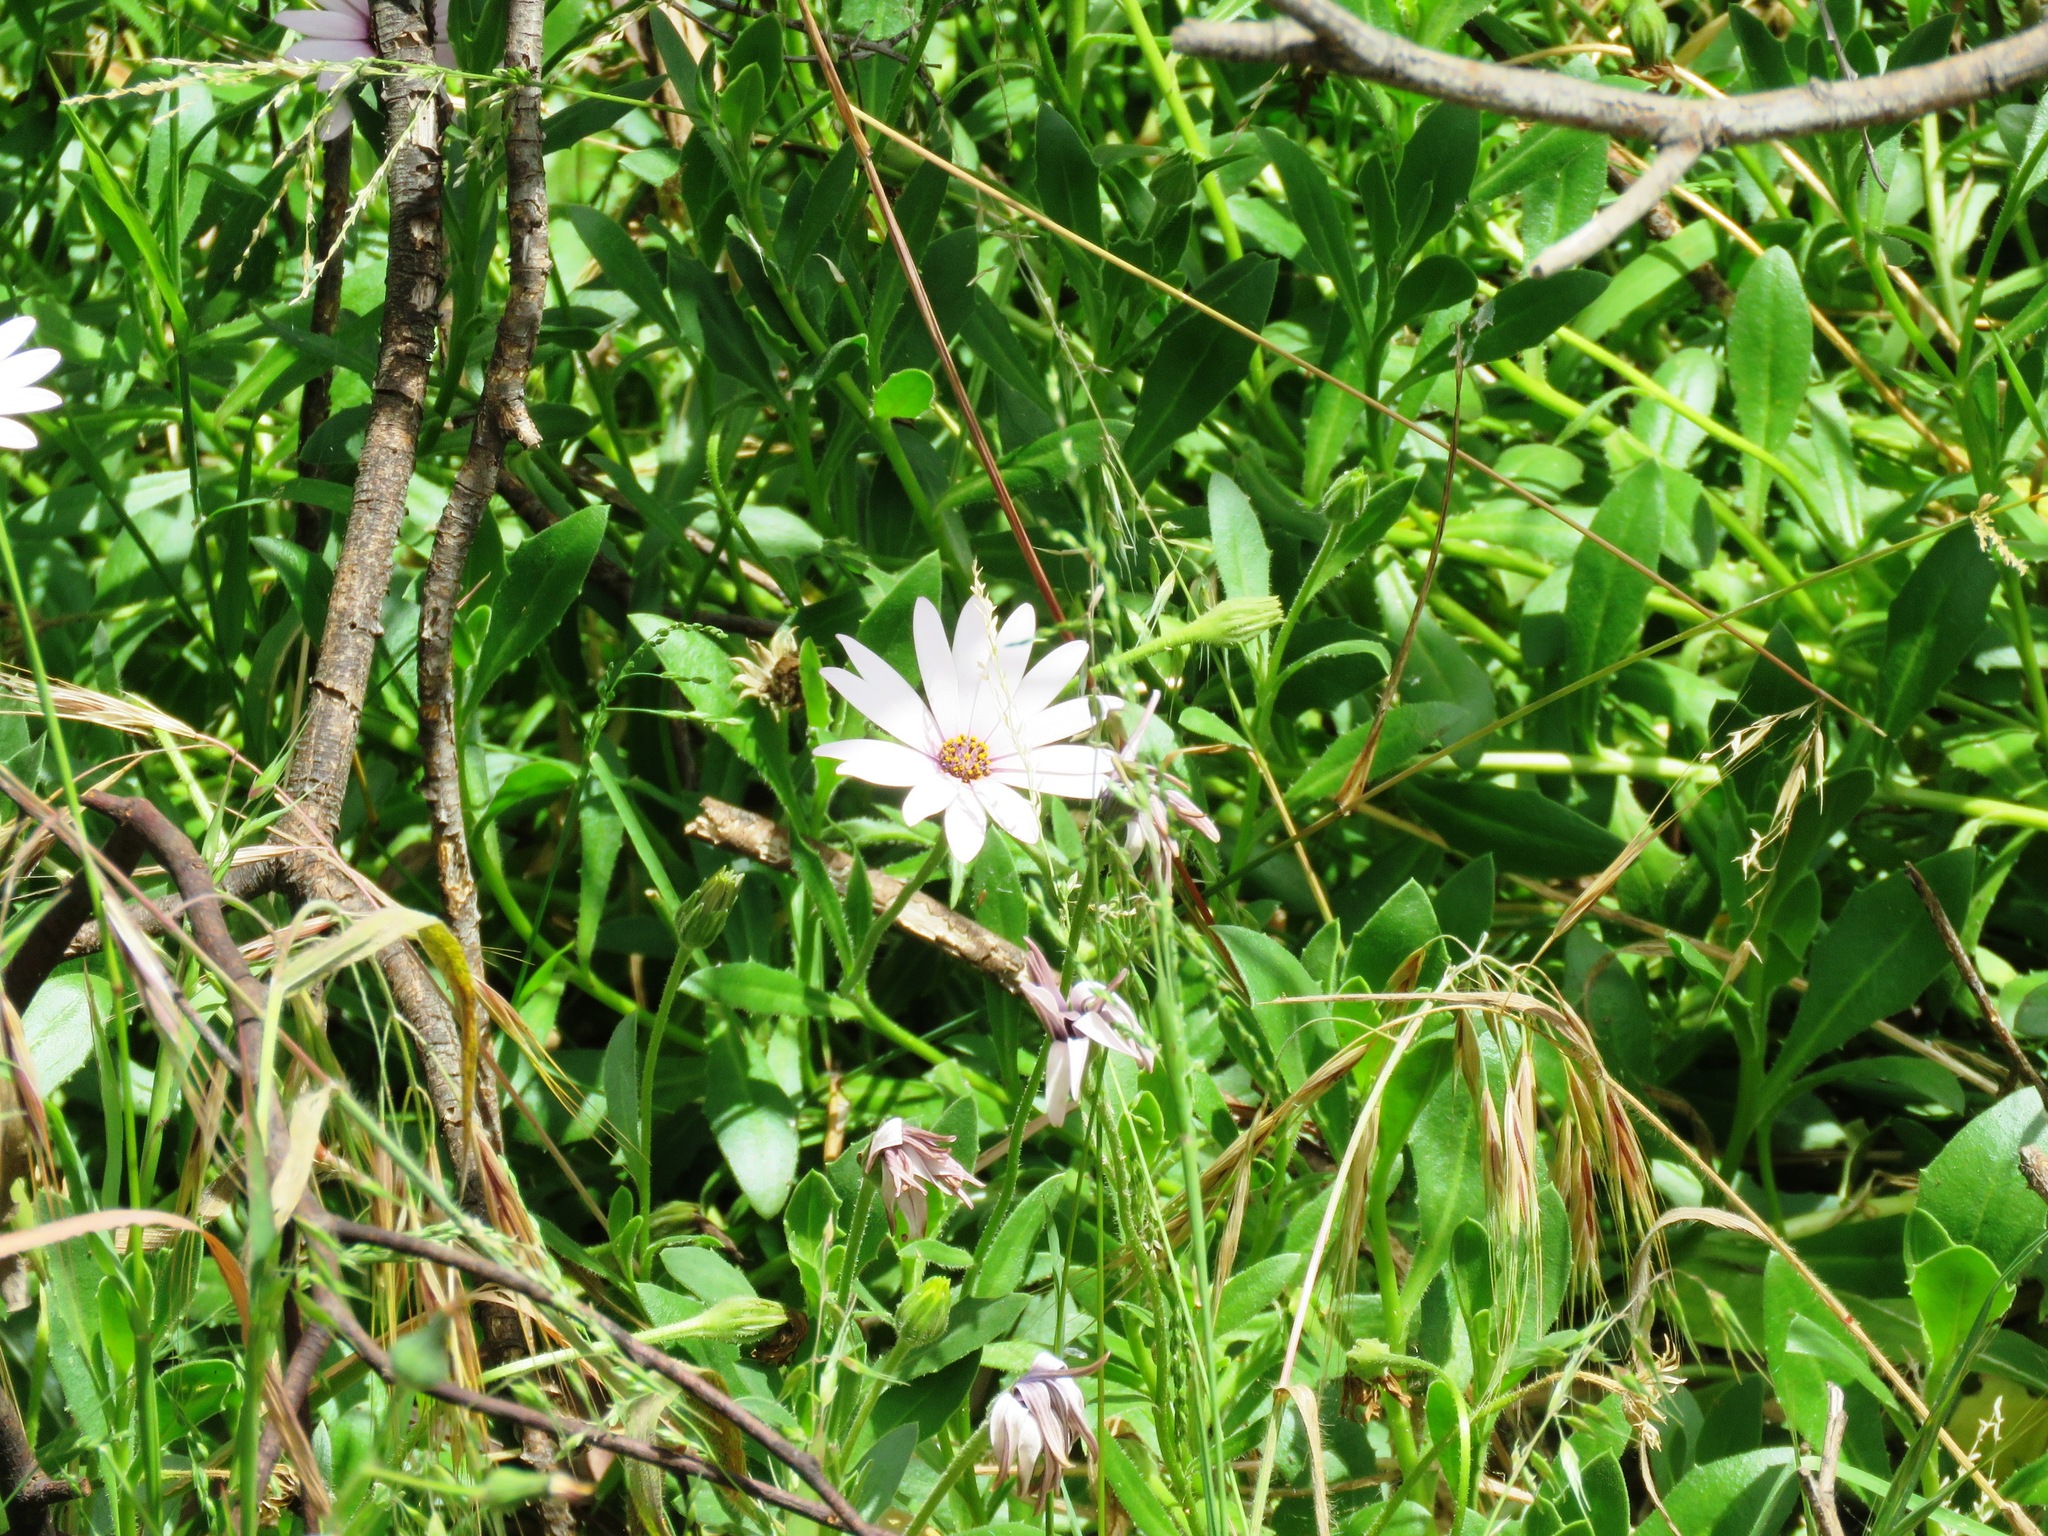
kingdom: Plantae
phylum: Tracheophyta
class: Magnoliopsida
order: Asterales
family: Asteraceae
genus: Dimorphotheca
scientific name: Dimorphotheca fruticosa
